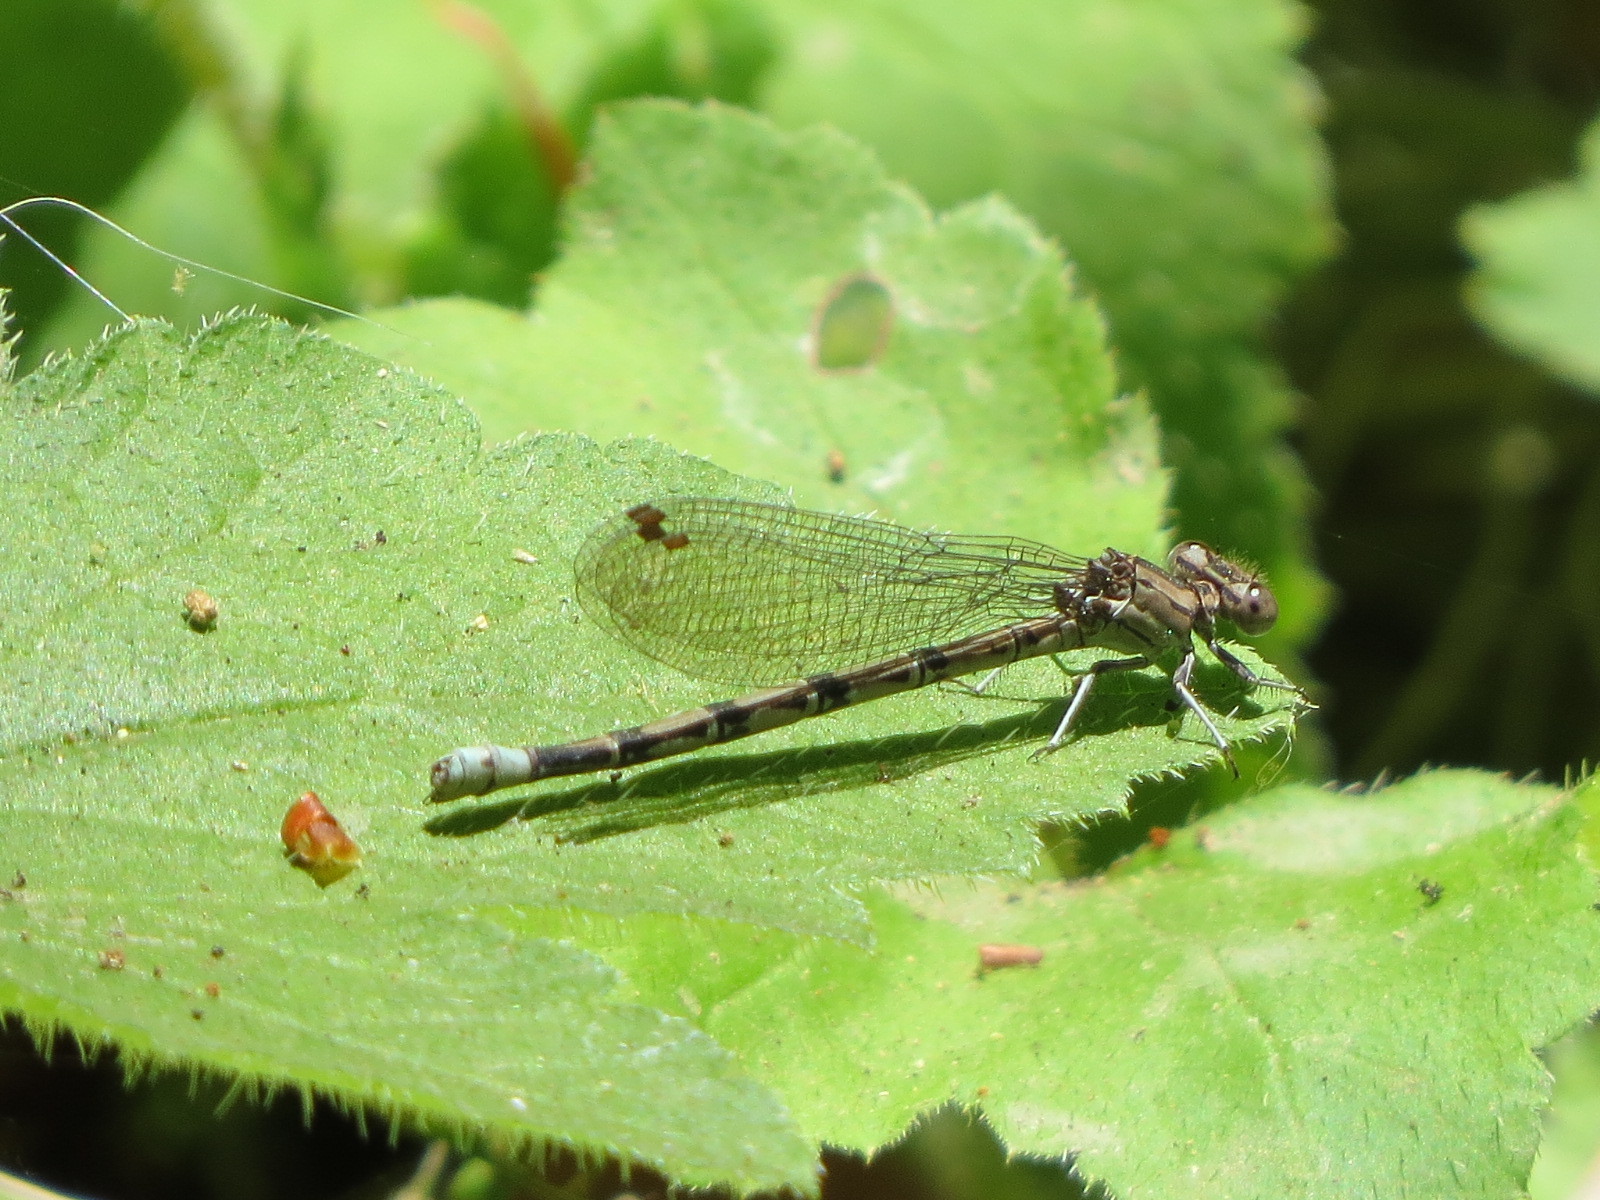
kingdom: Animalia
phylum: Arthropoda
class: Insecta
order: Odonata
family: Coenagrionidae
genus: Argia
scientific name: Argia vivida
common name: Vivid dancer
